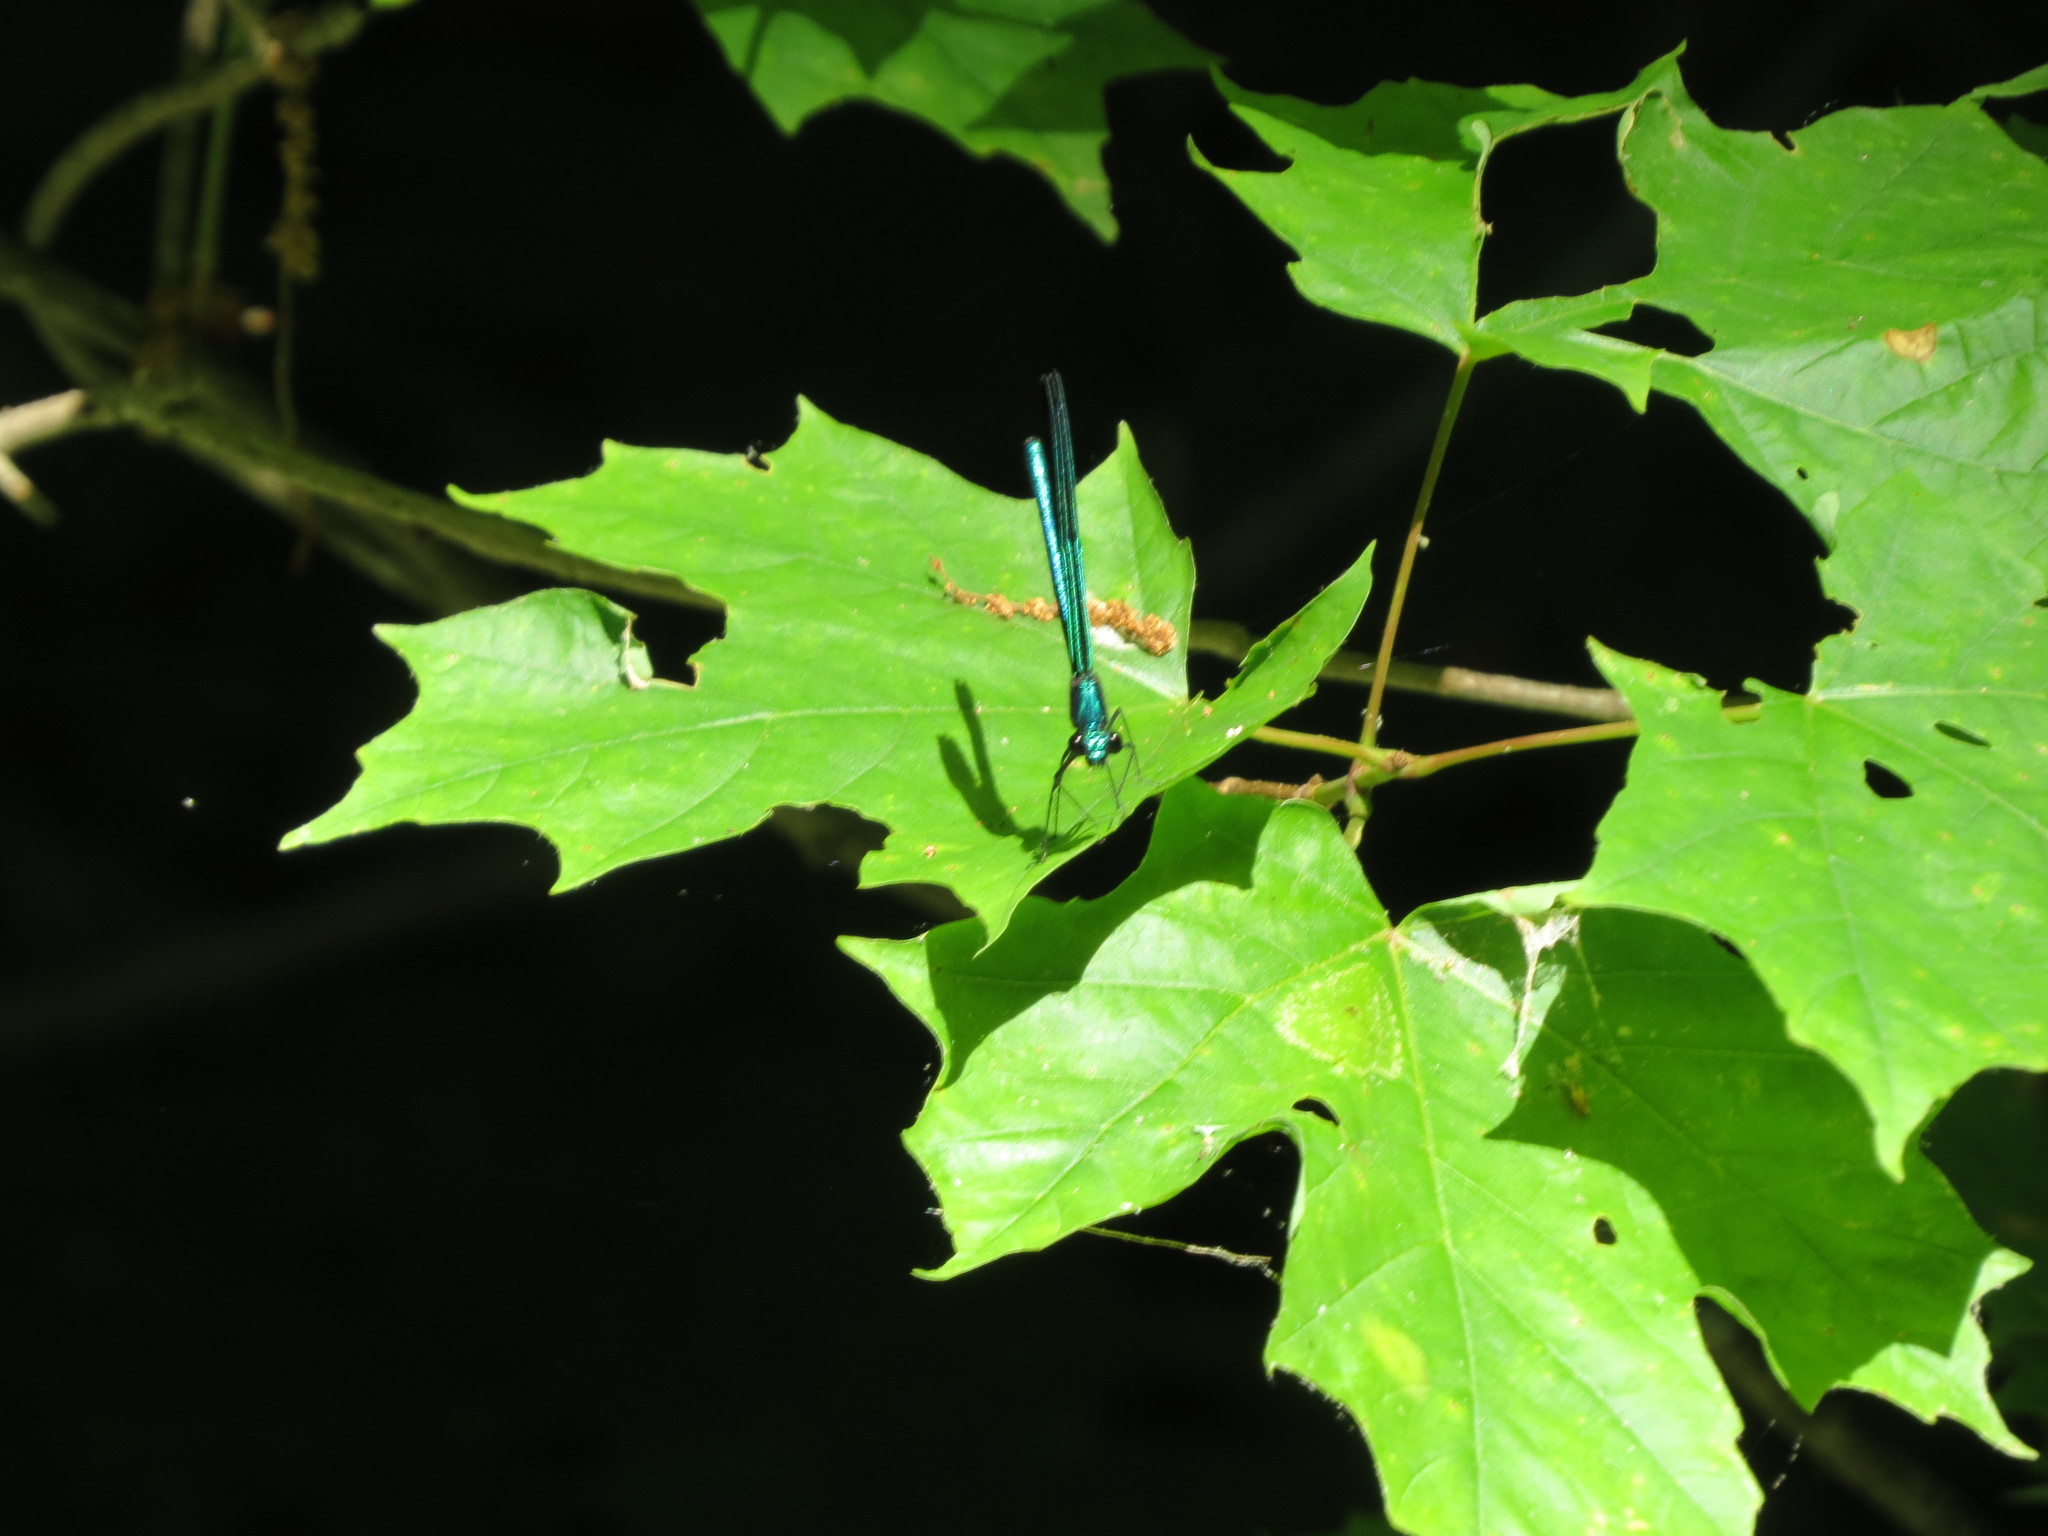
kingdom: Animalia
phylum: Arthropoda
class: Insecta
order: Odonata
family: Calopterygidae
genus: Calopteryx
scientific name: Calopteryx maculata
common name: Ebony jewelwing
